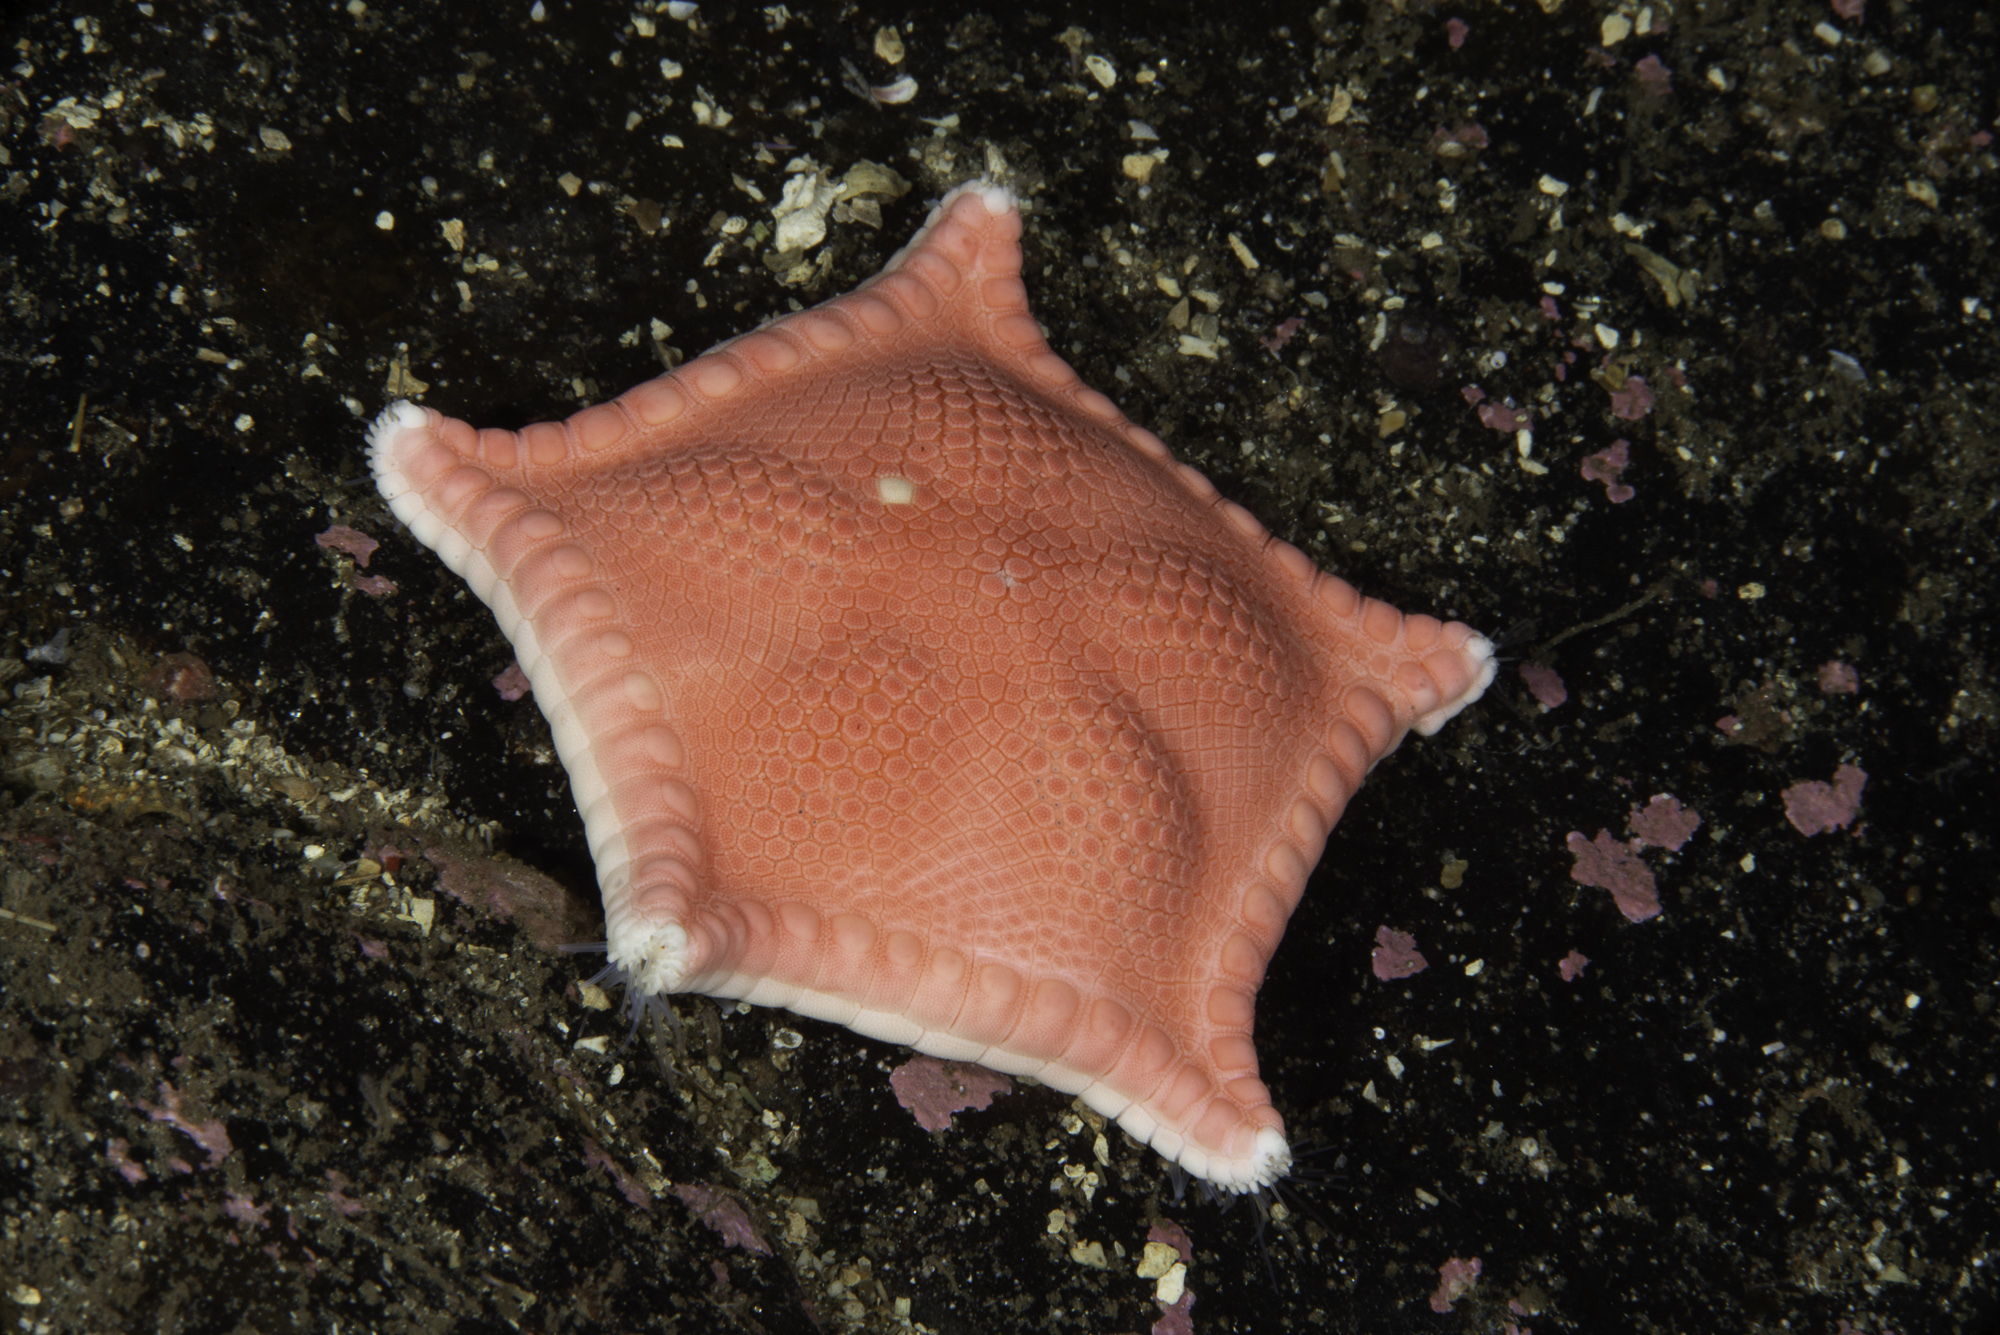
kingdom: Animalia
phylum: Echinodermata
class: Asteroidea
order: Valvatida
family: Goniasteridae
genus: Ceramaster
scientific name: Ceramaster granularis
